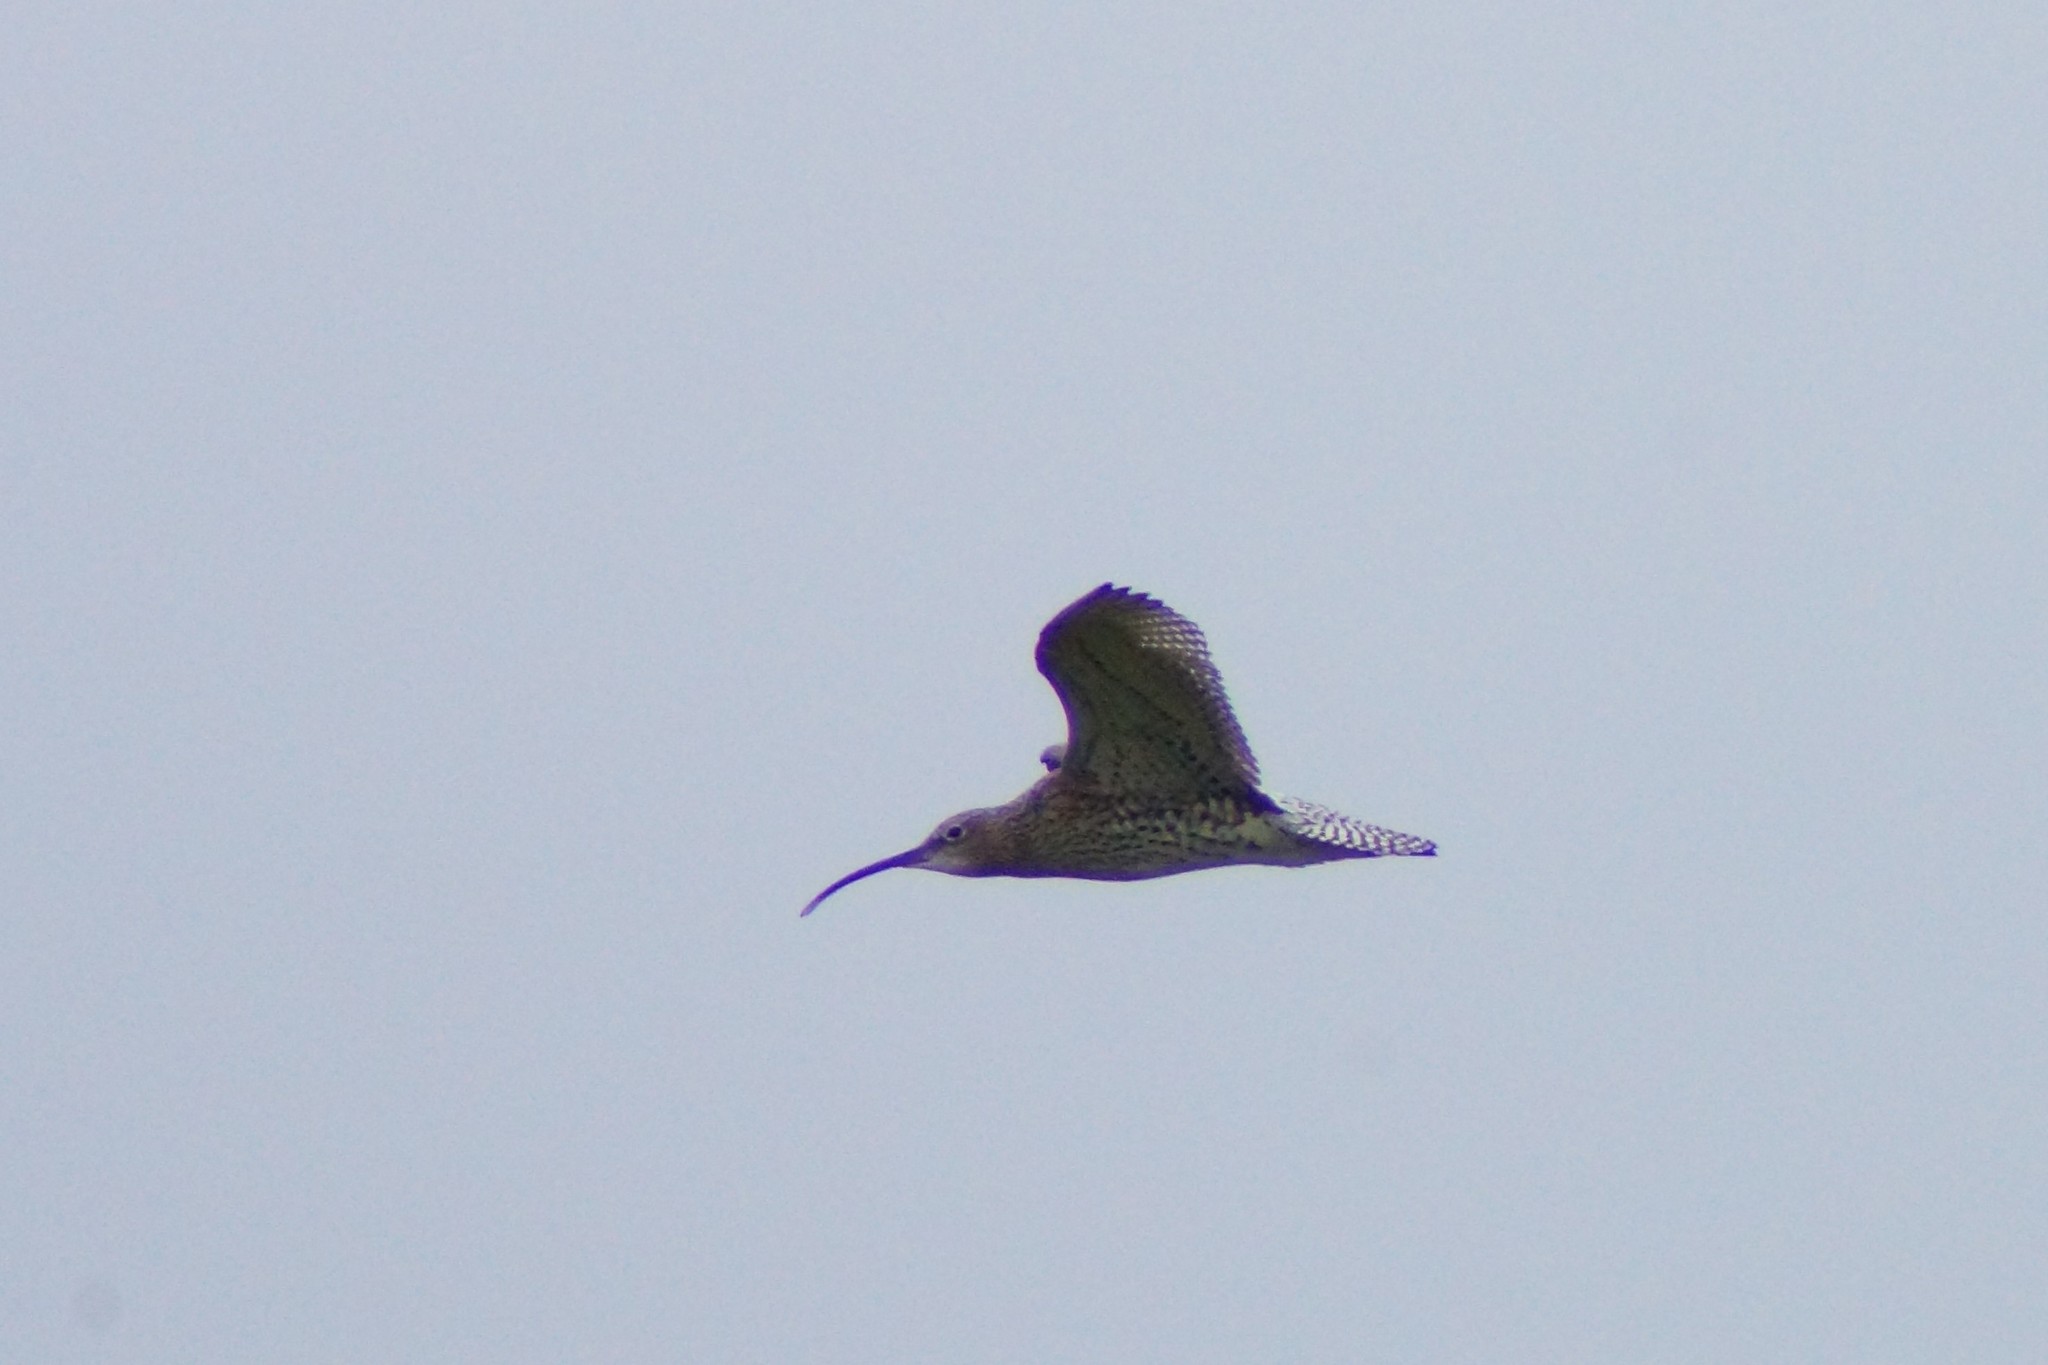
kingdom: Animalia
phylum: Chordata
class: Aves
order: Charadriiformes
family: Scolopacidae
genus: Numenius
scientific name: Numenius arquata
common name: Eurasian curlew
